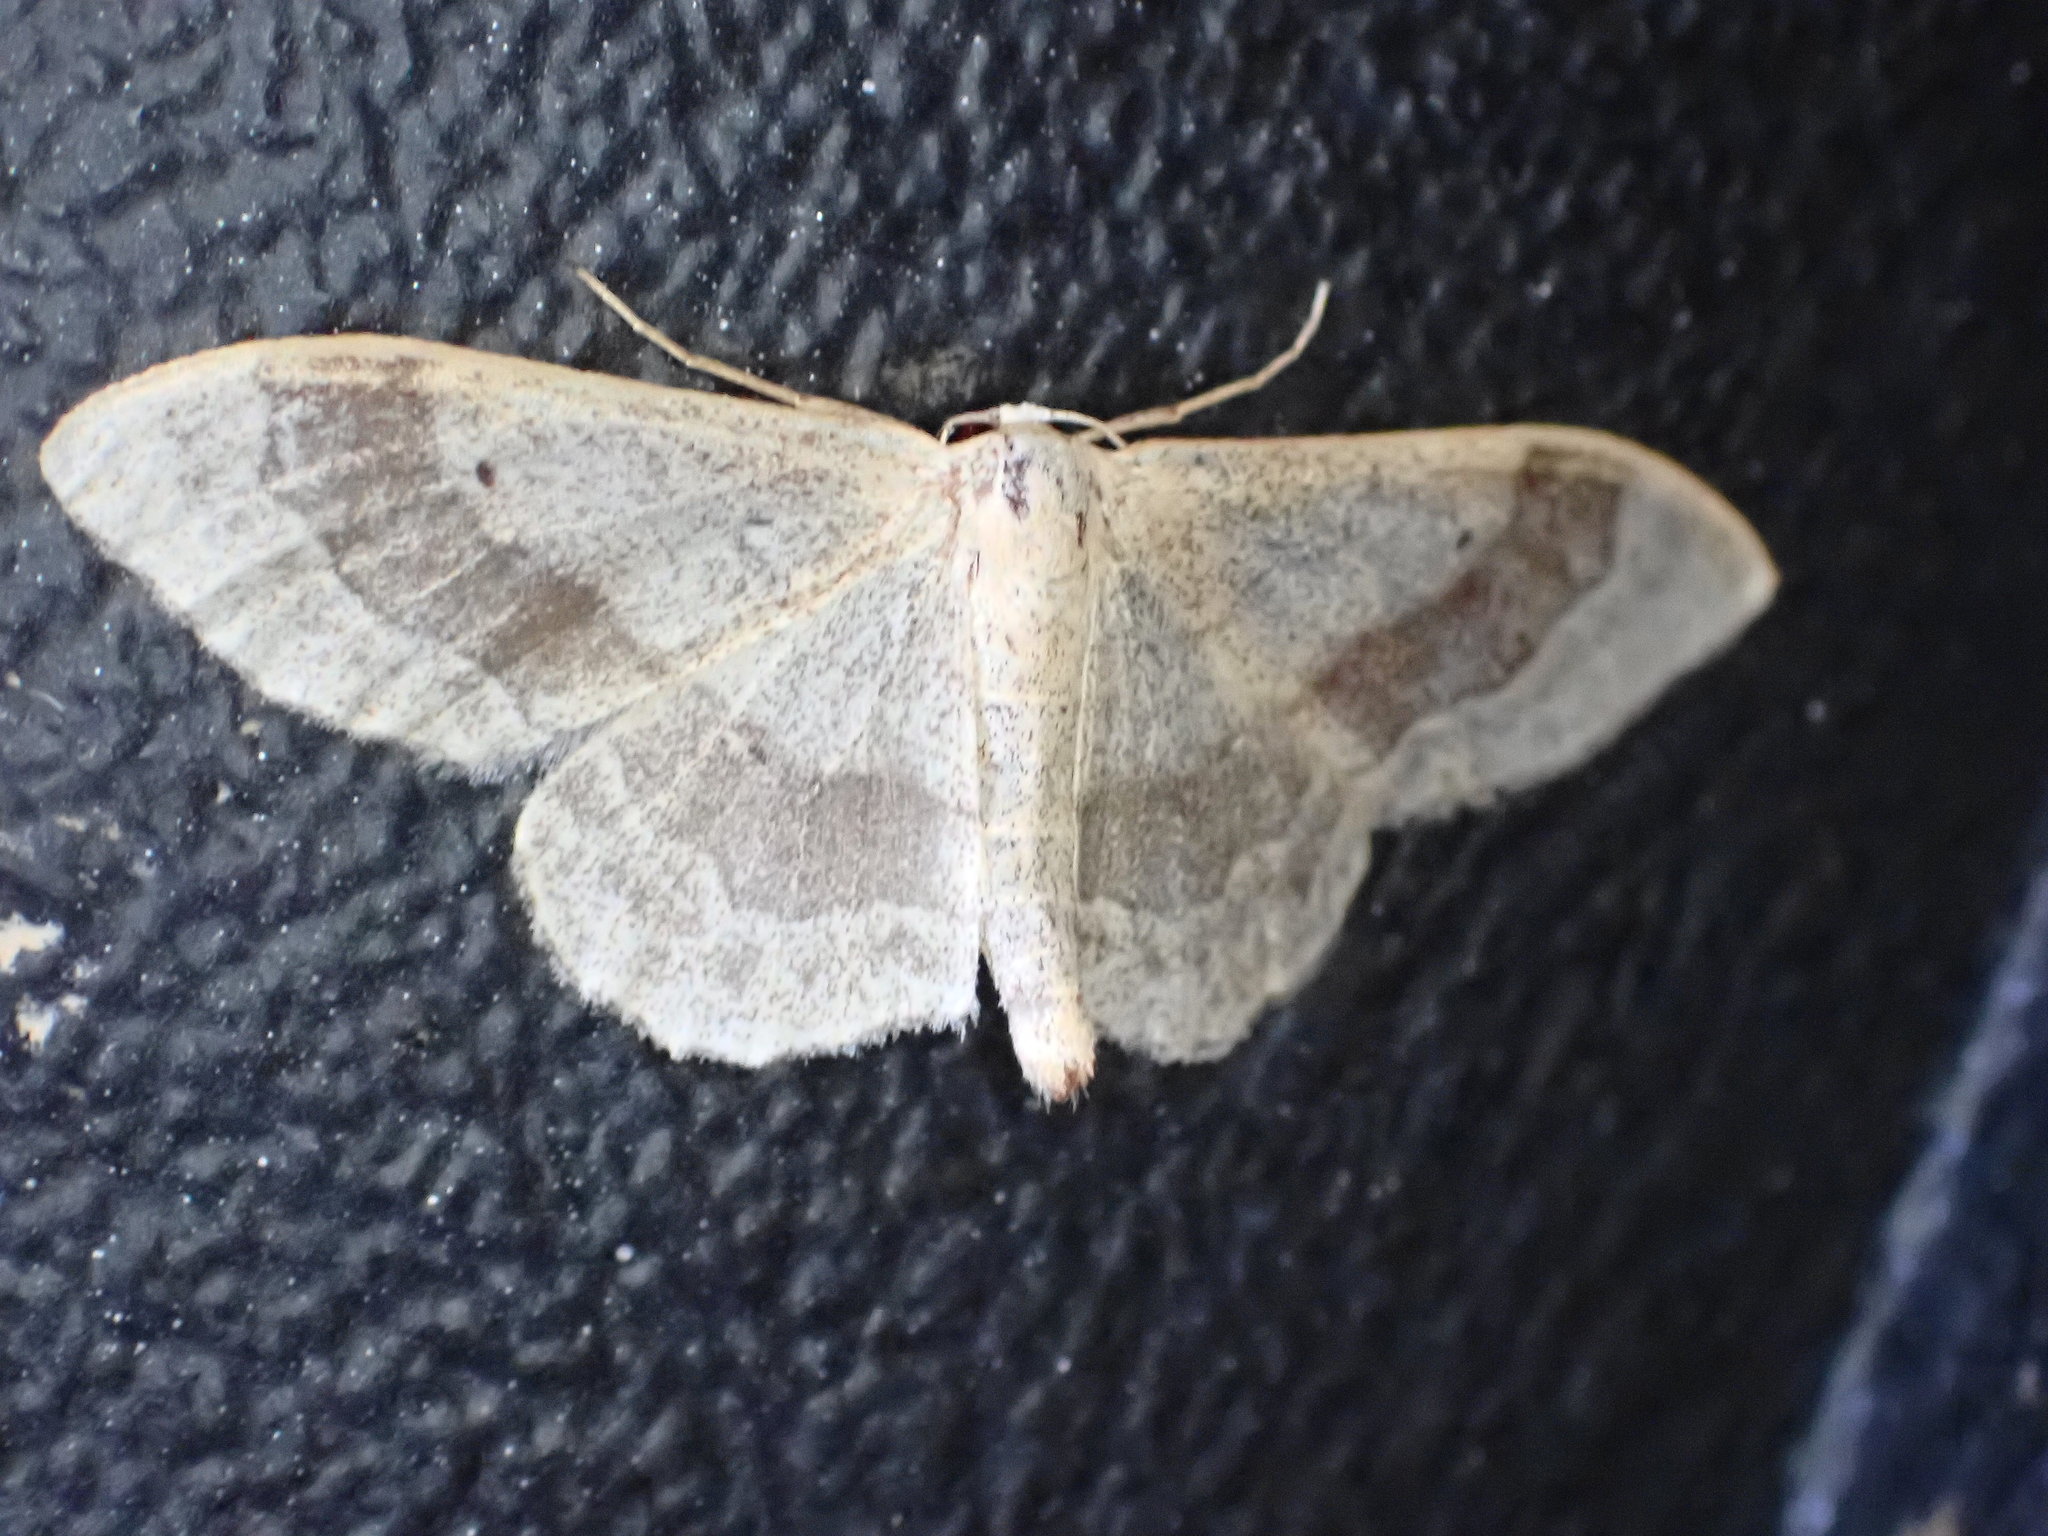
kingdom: Animalia
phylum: Arthropoda
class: Insecta
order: Lepidoptera
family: Geometridae
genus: Idaea
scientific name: Idaea aversata
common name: Riband wave
